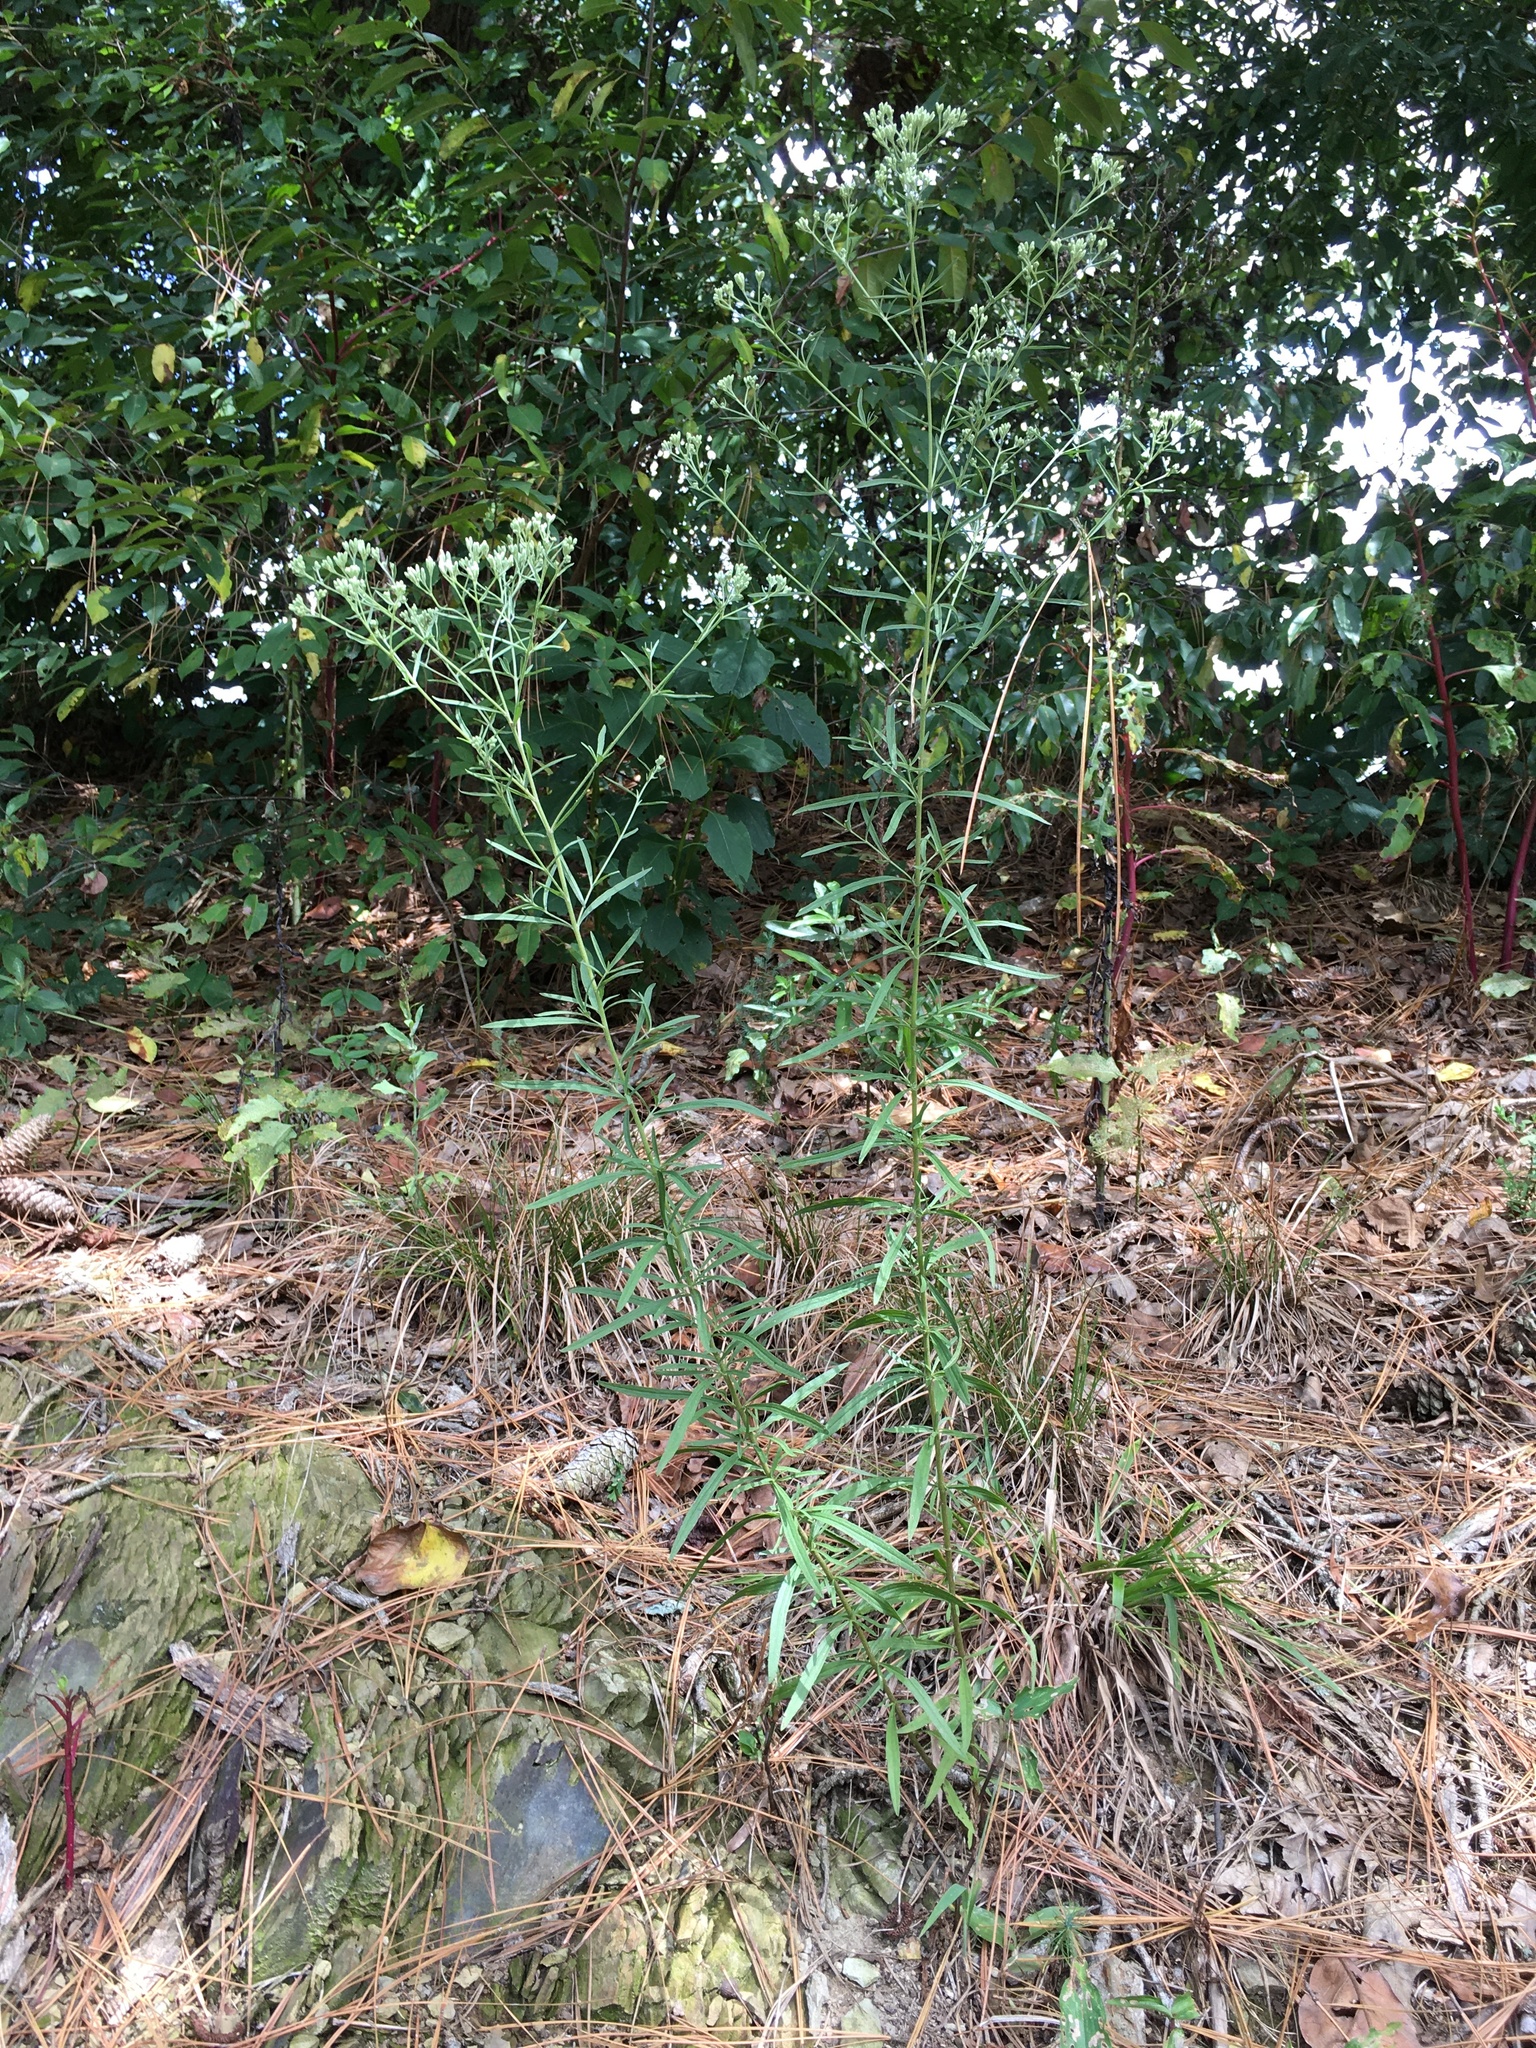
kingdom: Plantae
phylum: Tracheophyta
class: Magnoliopsida
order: Asterales
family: Asteraceae
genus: Eupatorium
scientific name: Eupatorium torreyanum
